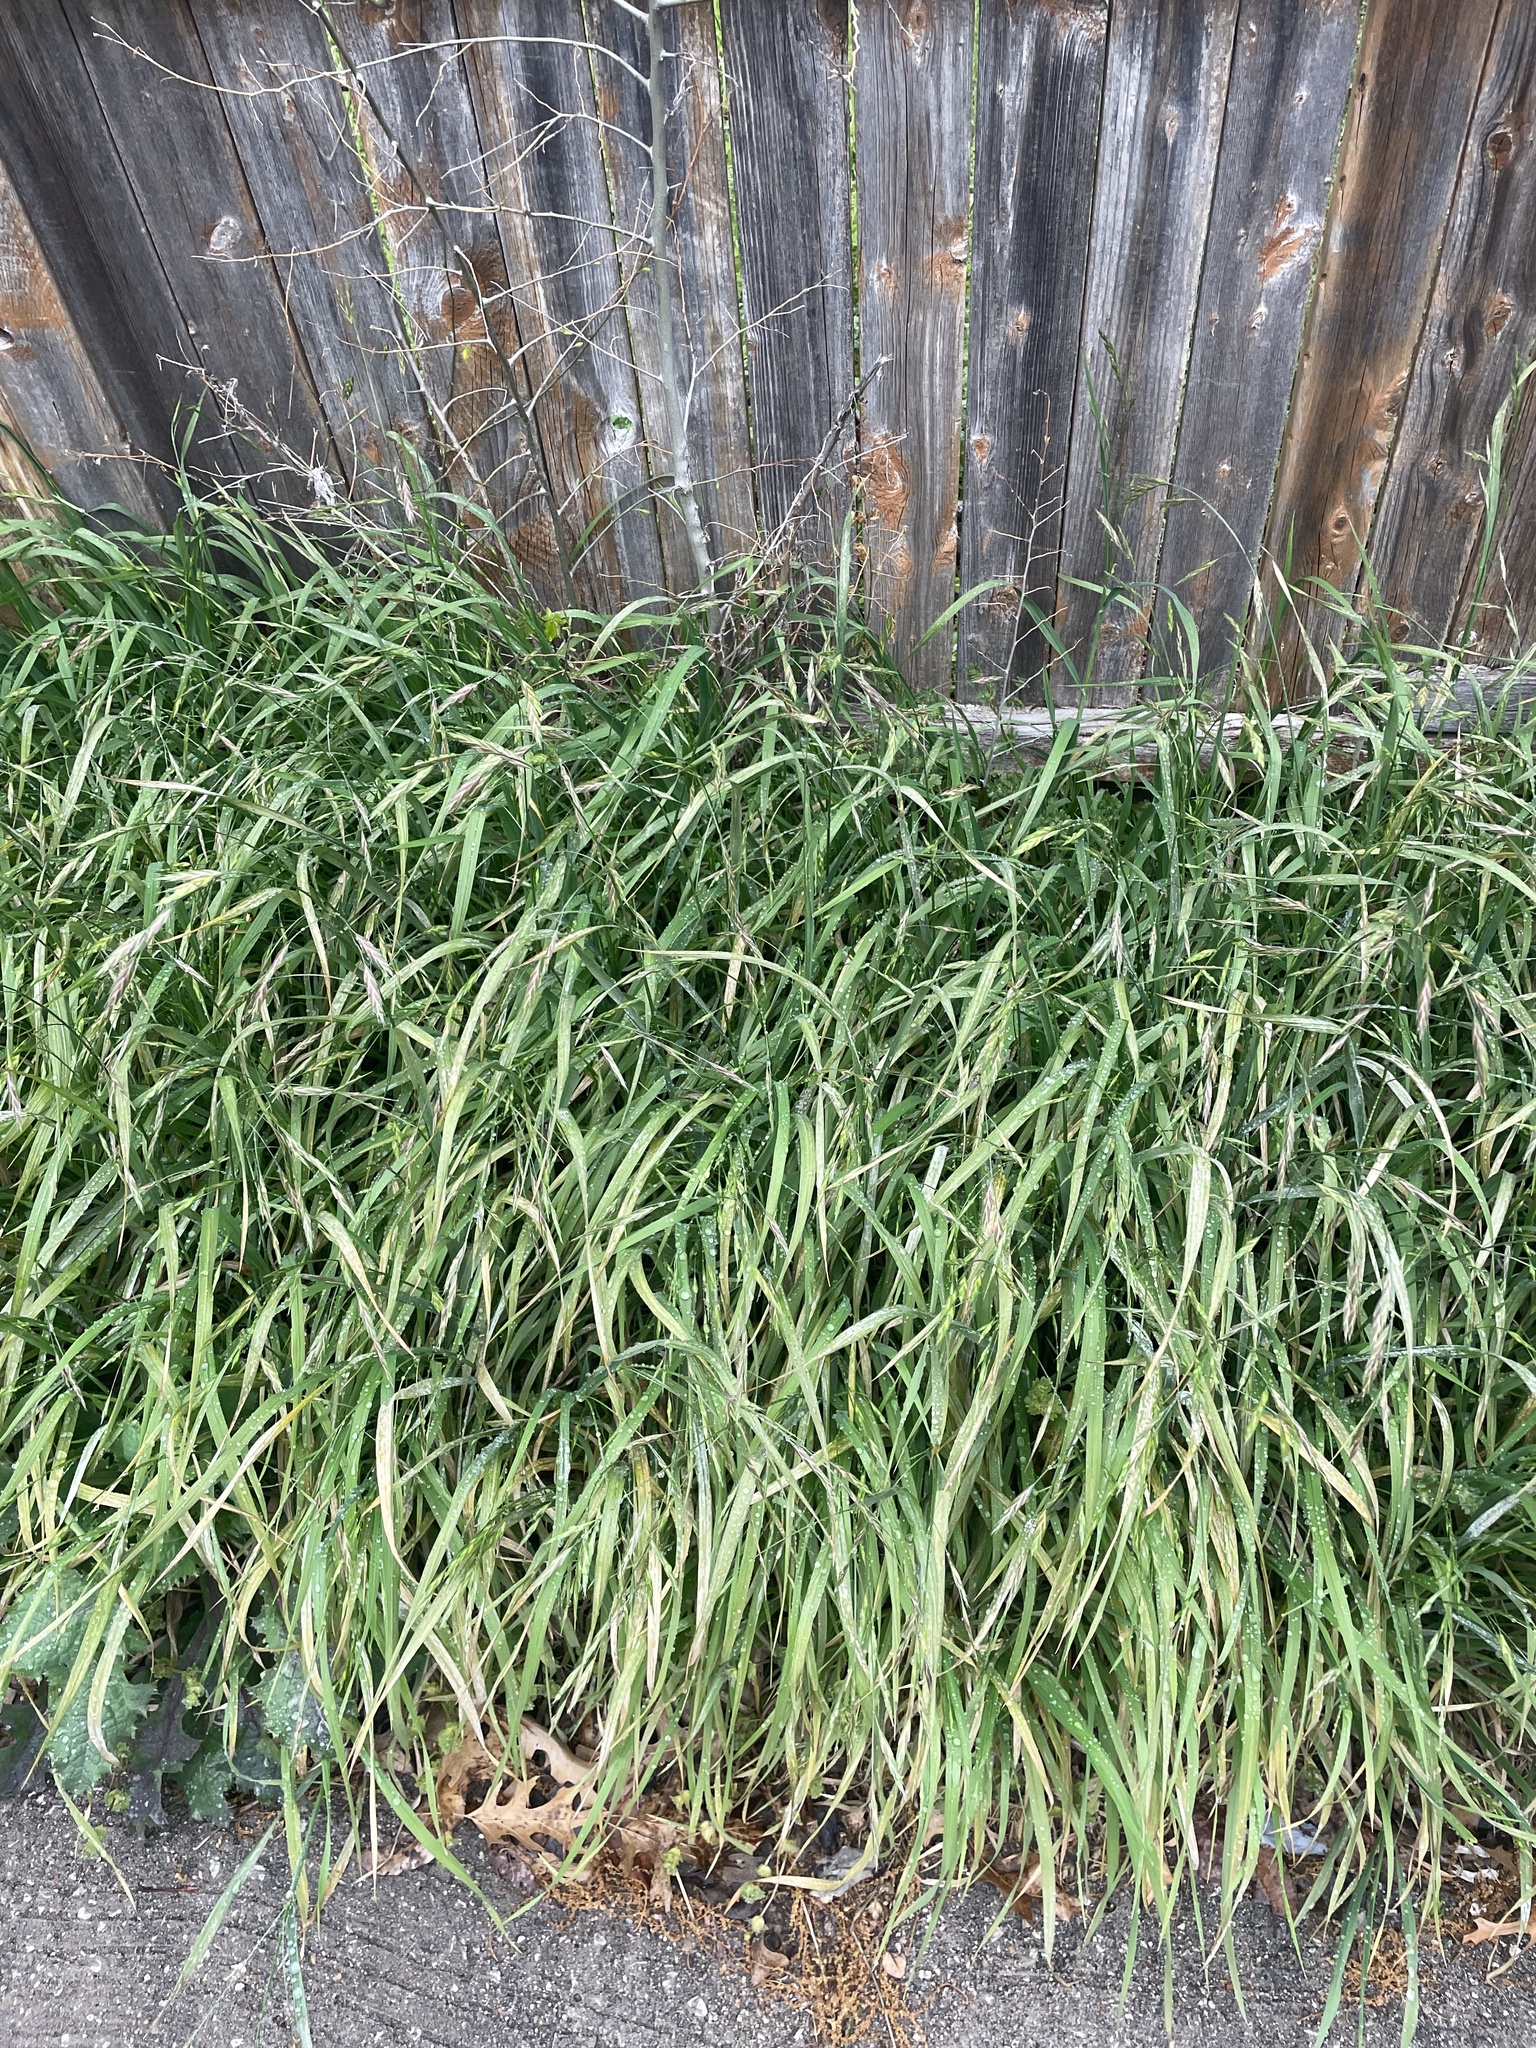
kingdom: Plantae
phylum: Tracheophyta
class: Liliopsida
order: Poales
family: Poaceae
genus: Bromus
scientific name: Bromus catharticus
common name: Rescuegrass
